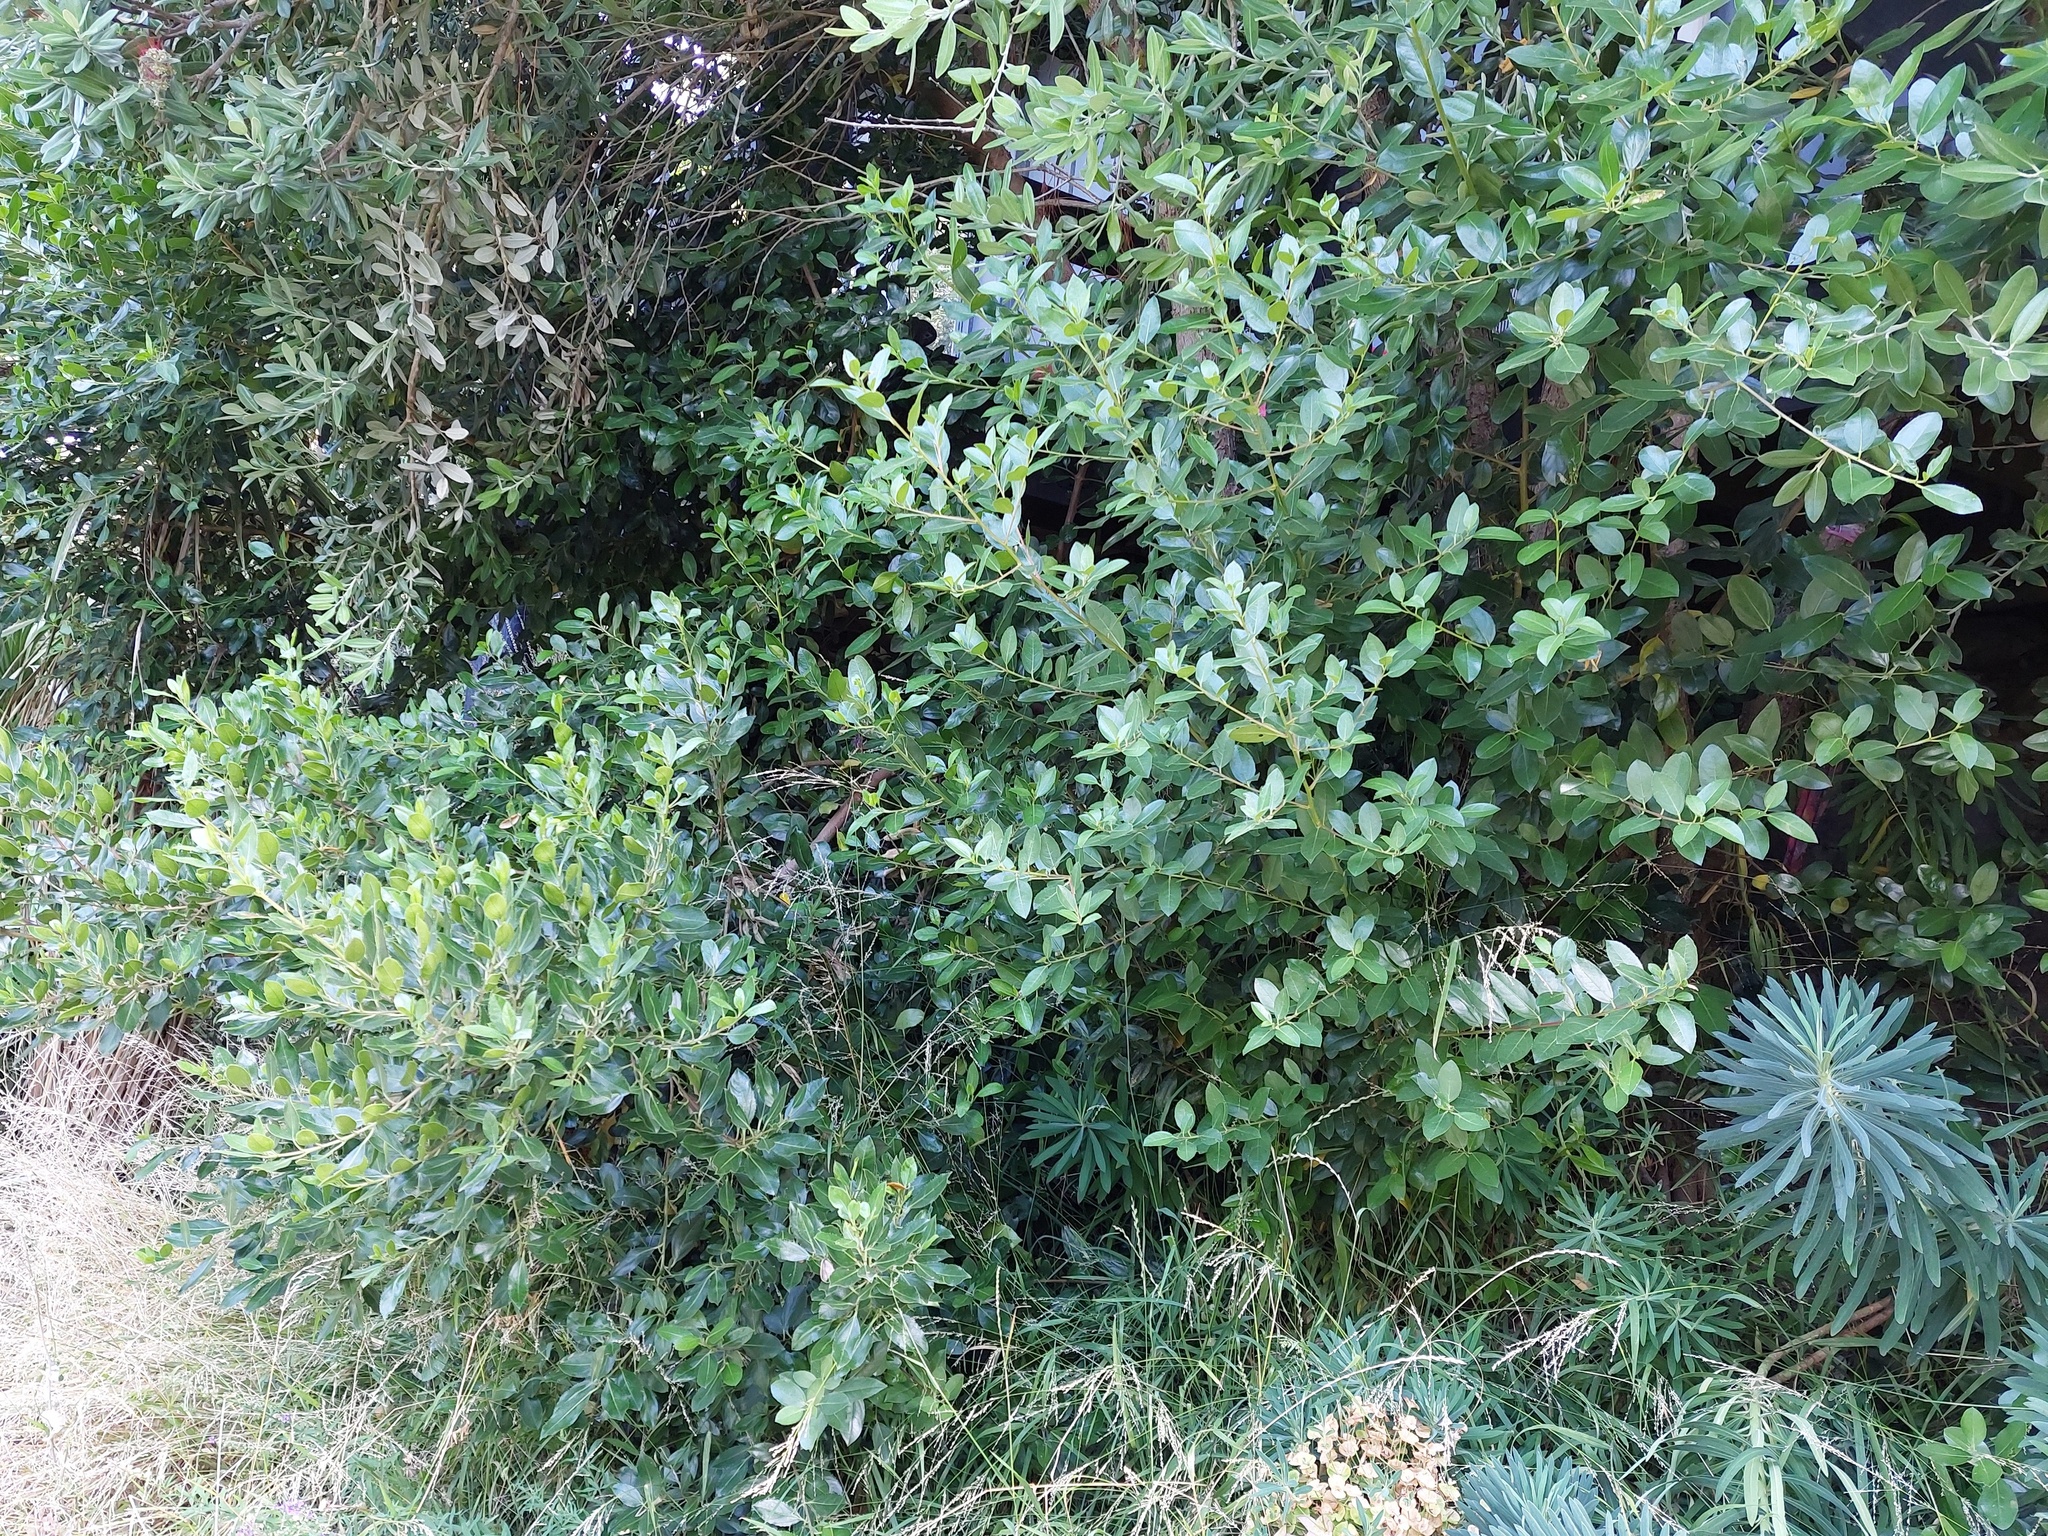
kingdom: Plantae
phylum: Tracheophyta
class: Magnoliopsida
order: Rosales
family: Rhamnaceae
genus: Rhamnus
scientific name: Rhamnus alaternus
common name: Mediterranean buckthorn
